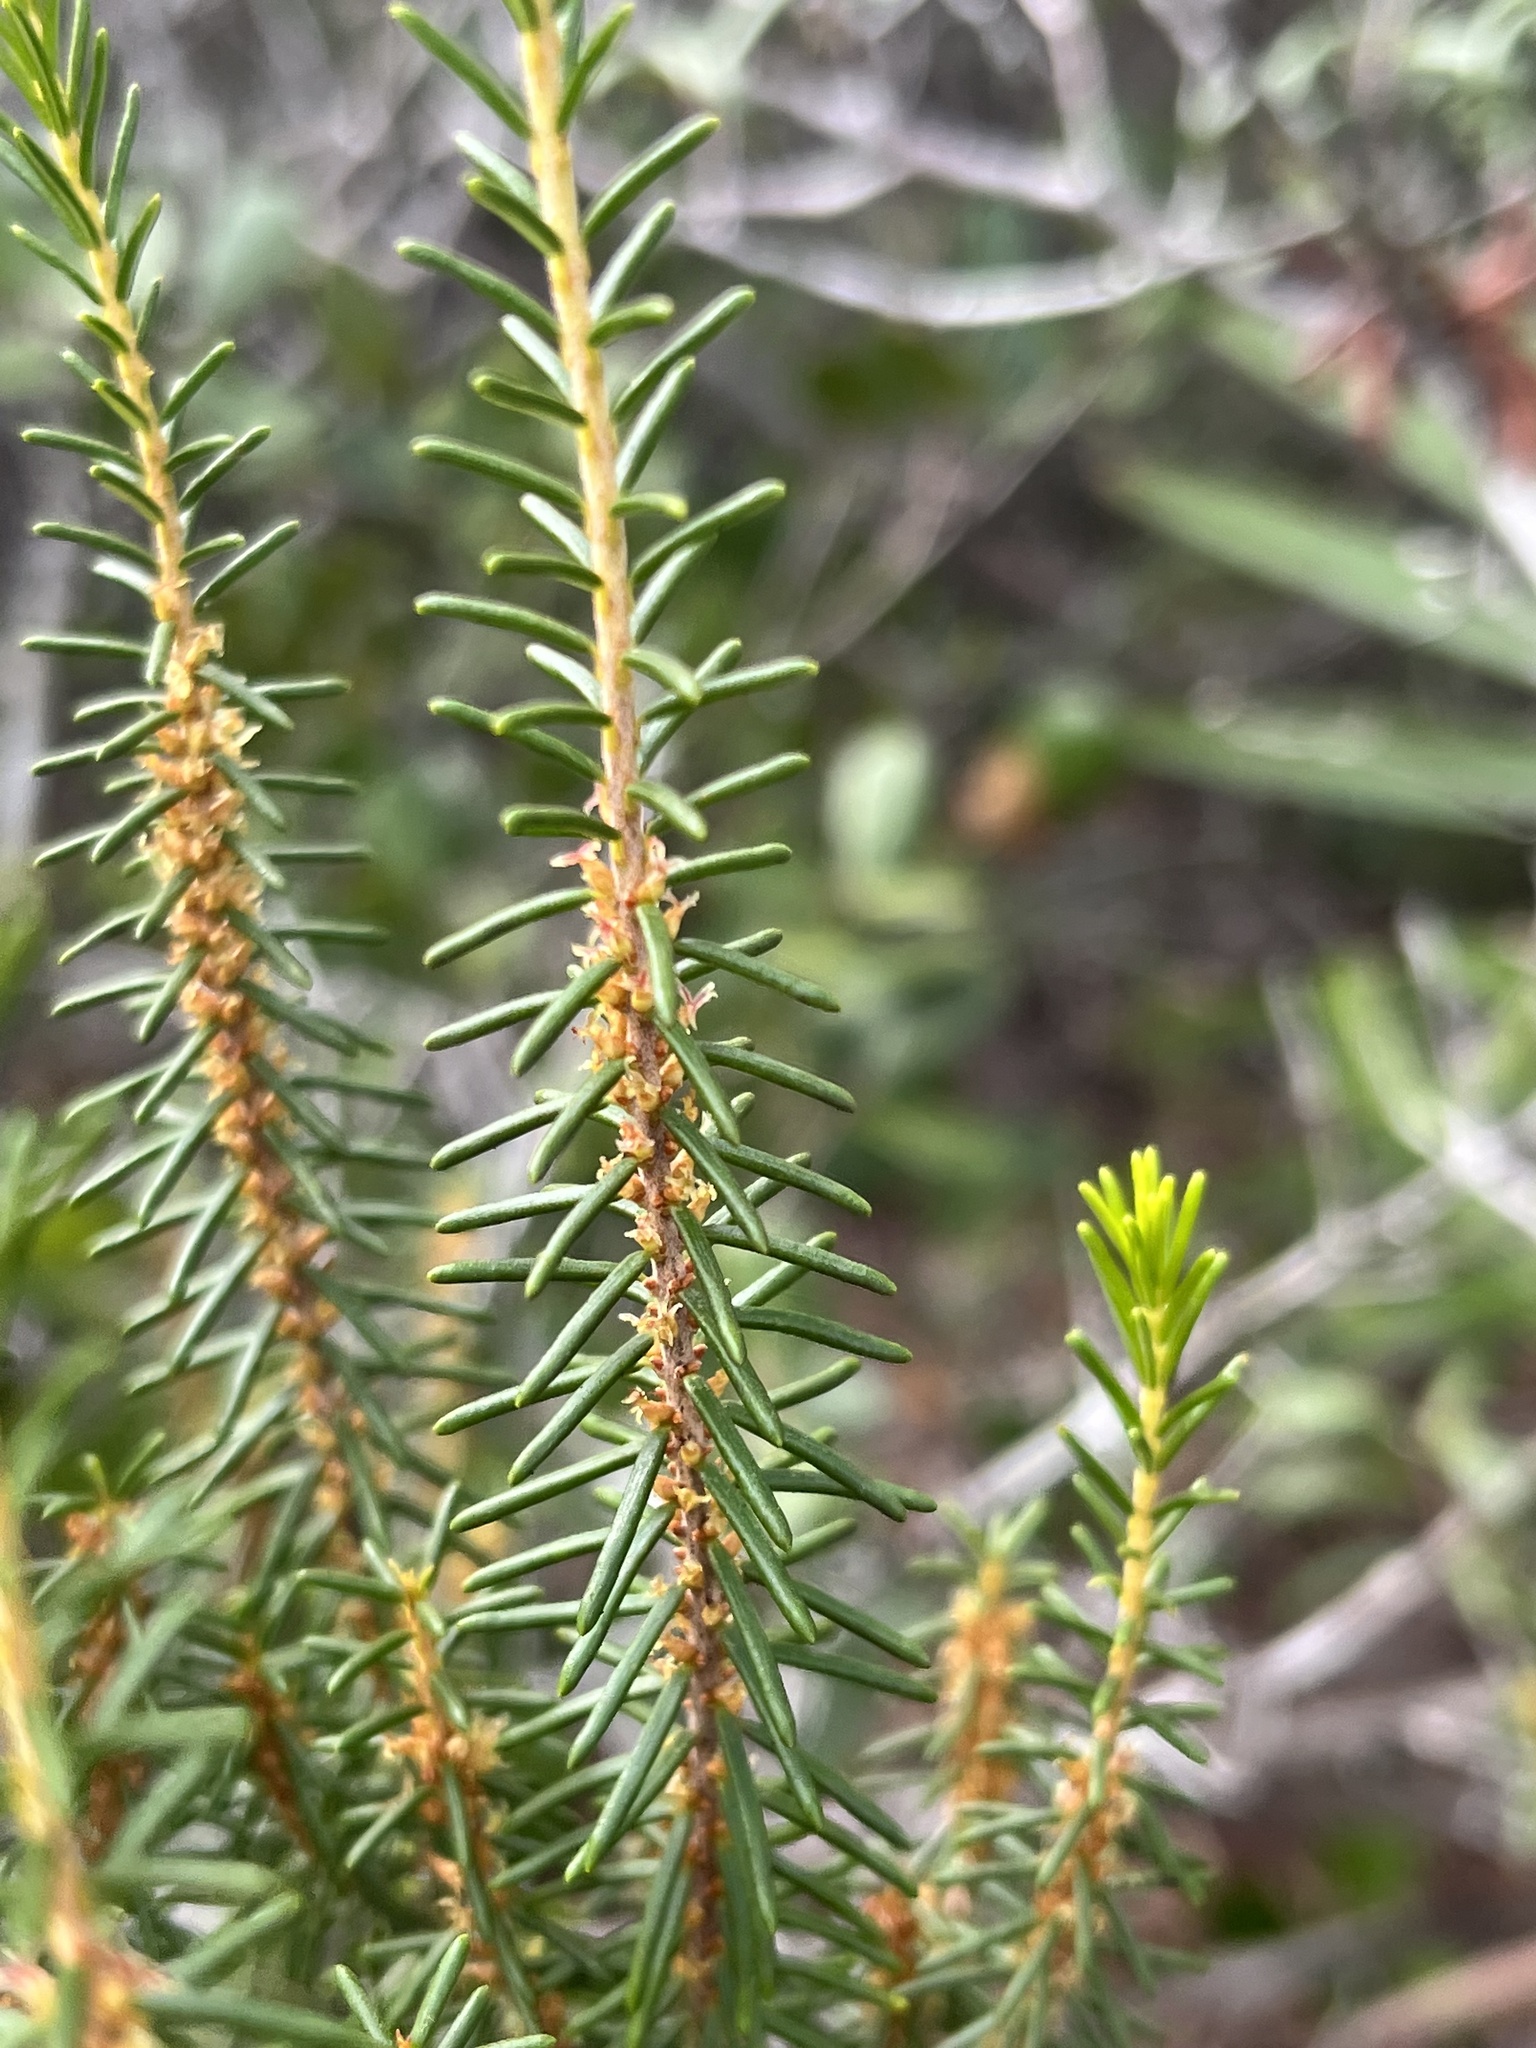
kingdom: Plantae
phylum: Tracheophyta
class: Magnoliopsida
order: Ericales
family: Ericaceae
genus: Ceratiola
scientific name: Ceratiola ericoides
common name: Sandhill-rosemary
